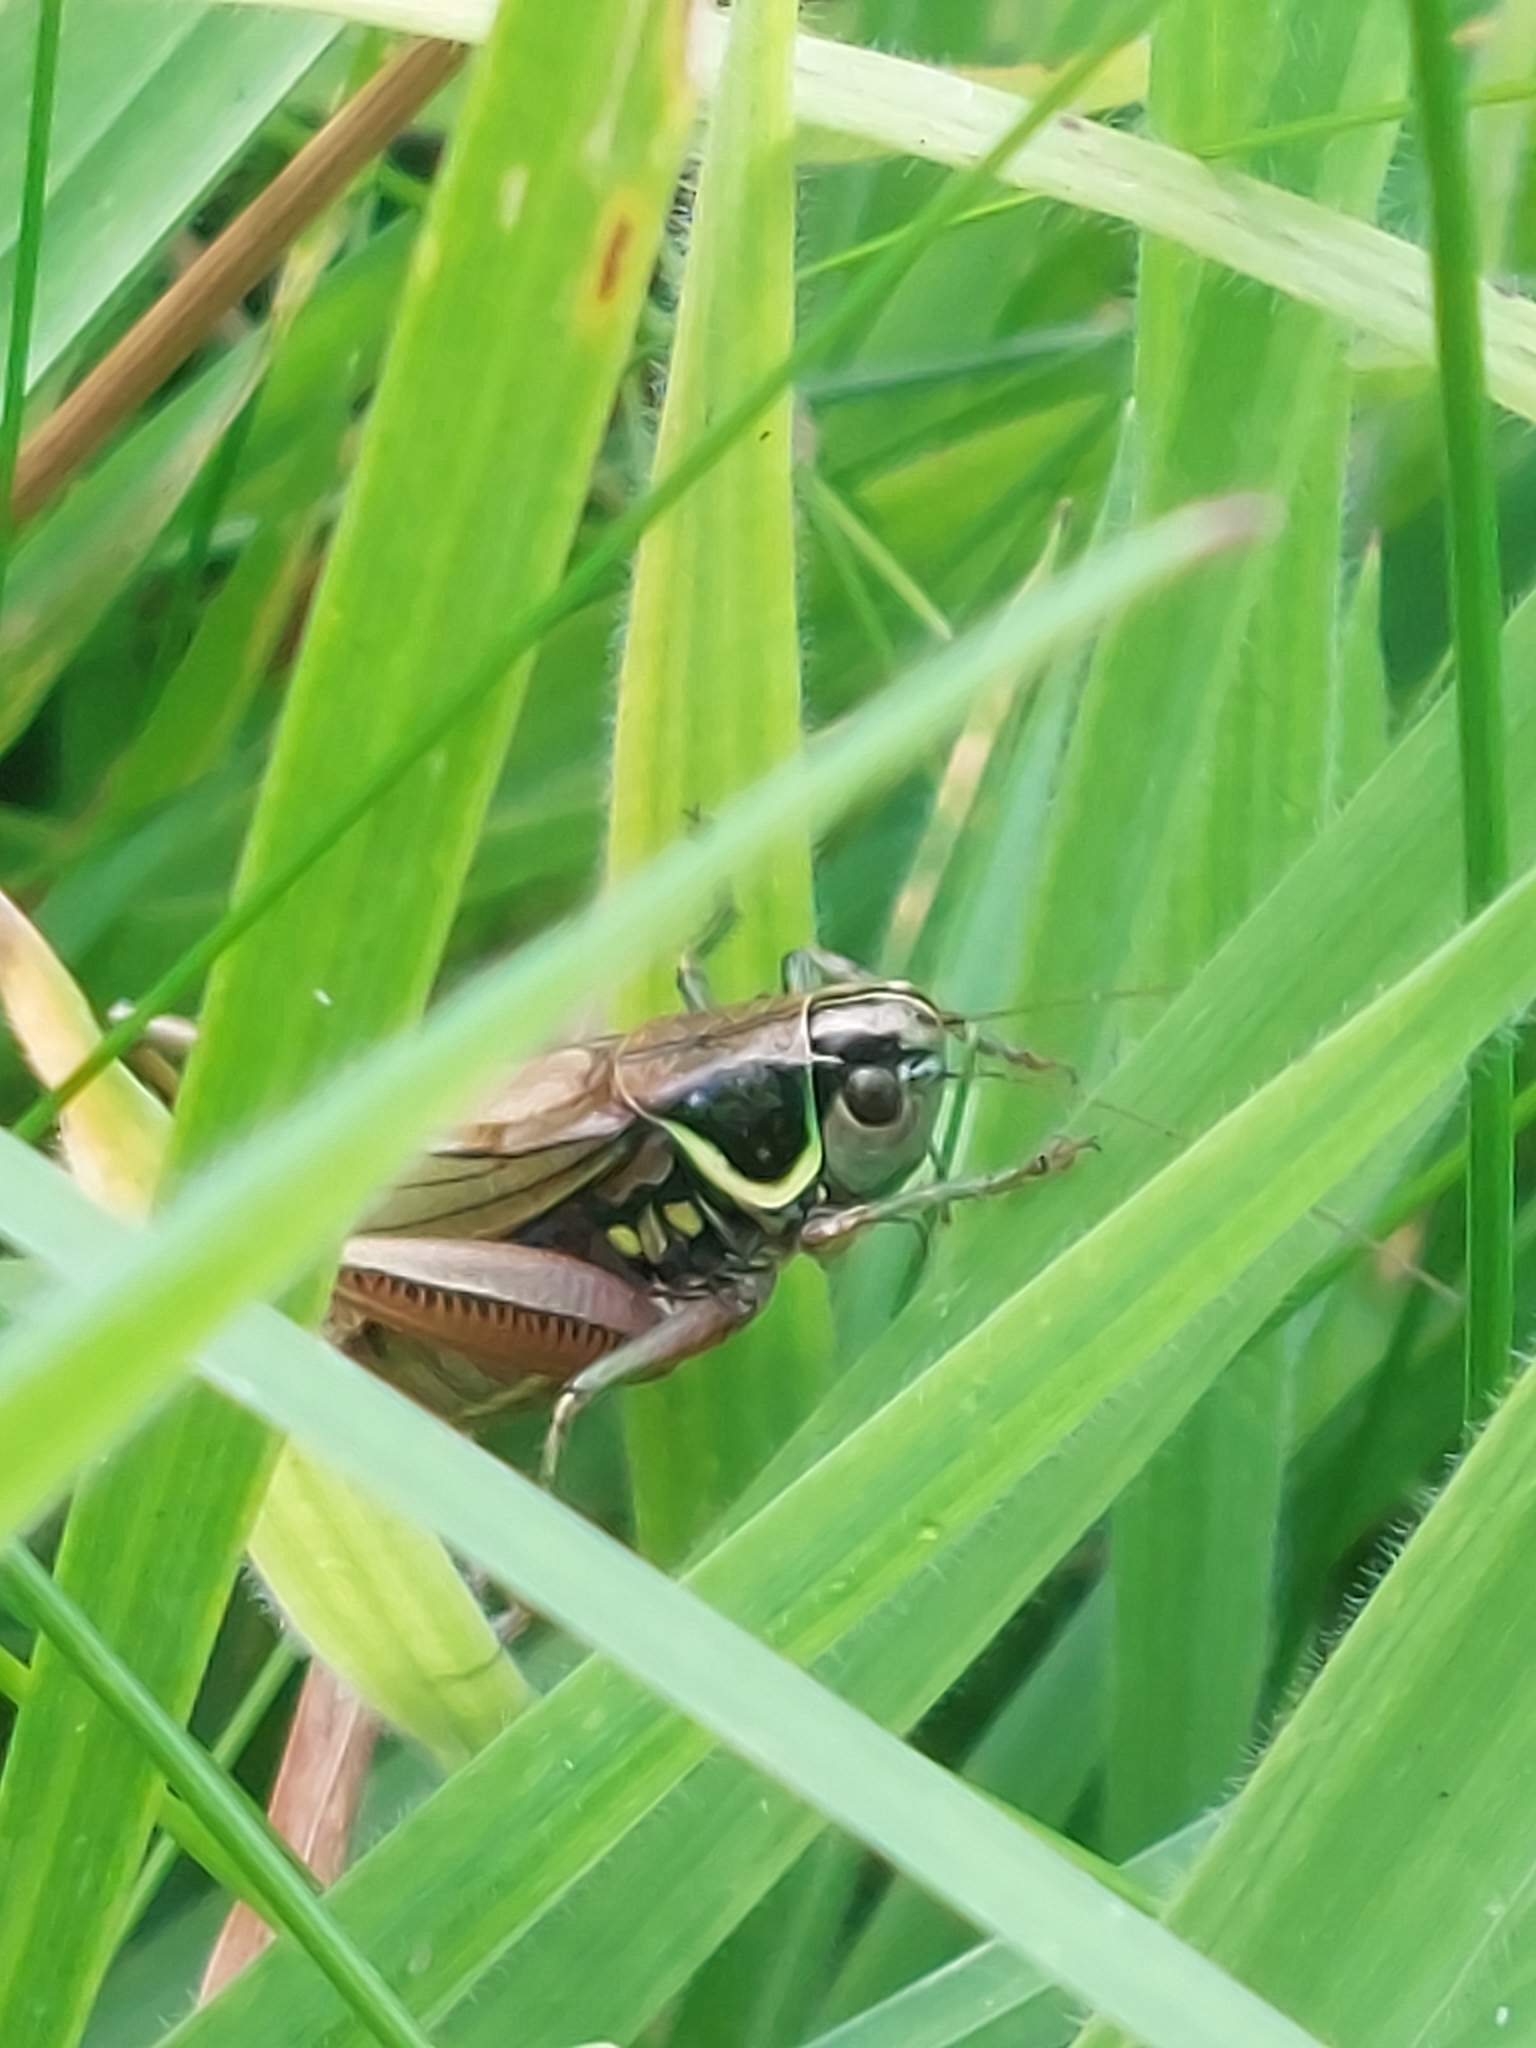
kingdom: Animalia
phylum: Arthropoda
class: Insecta
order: Orthoptera
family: Tettigoniidae
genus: Roeseliana
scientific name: Roeseliana roeselii
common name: Roesel's bush cricket
